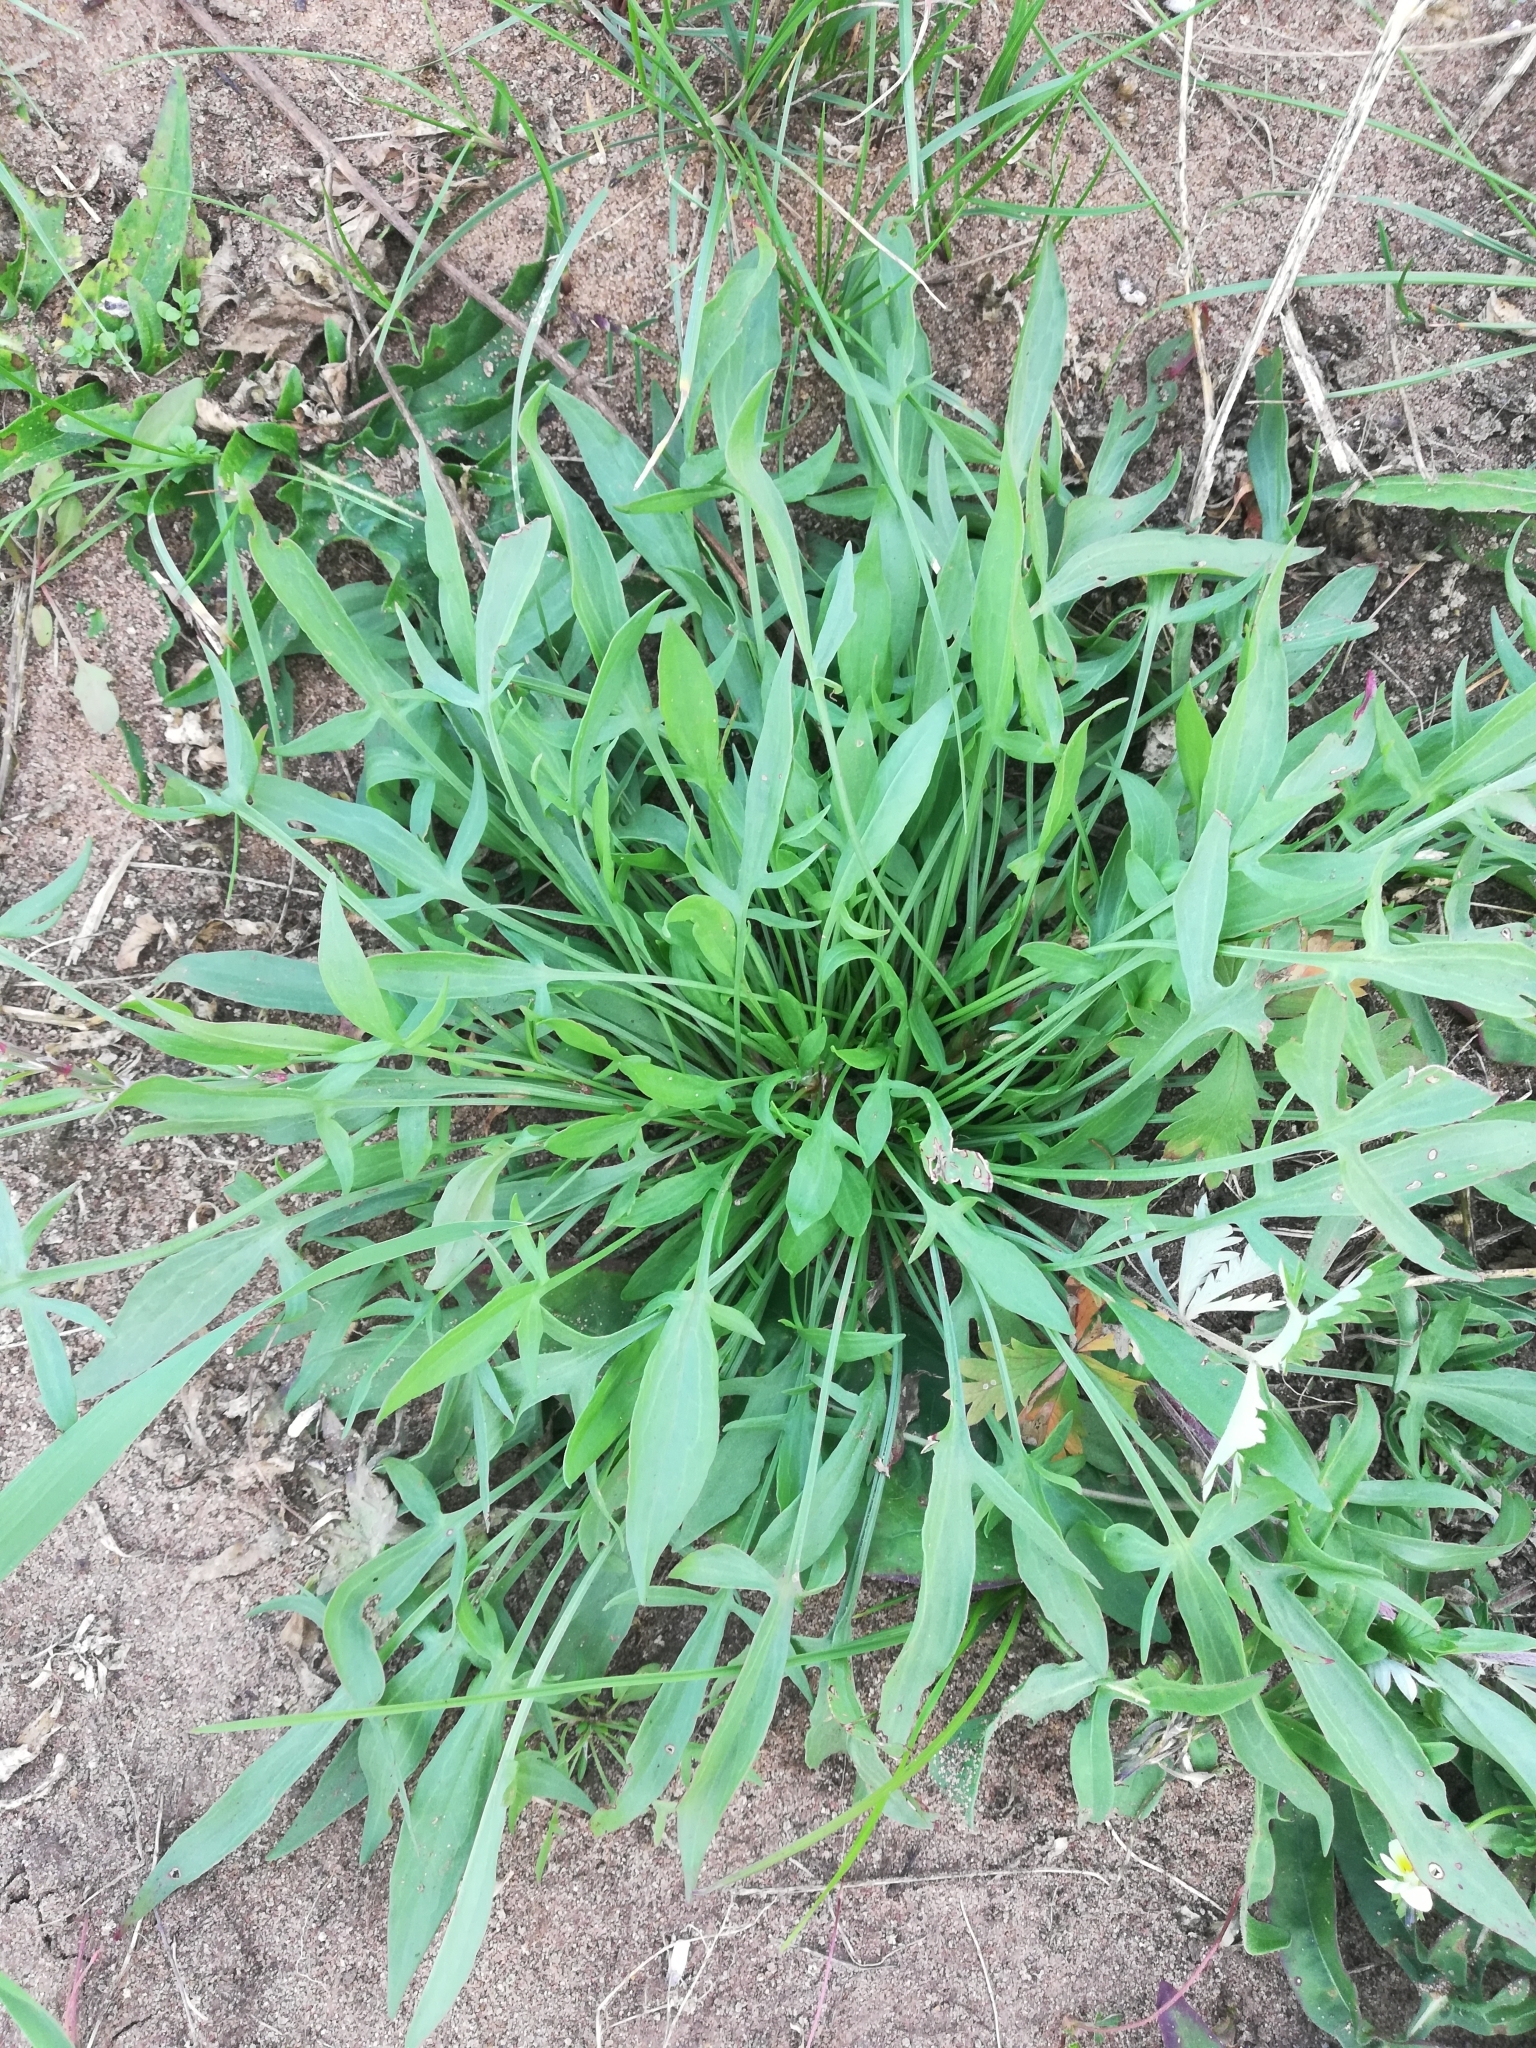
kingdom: Plantae
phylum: Tracheophyta
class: Magnoliopsida
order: Caryophyllales
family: Polygonaceae
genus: Rumex
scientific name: Rumex acetosella
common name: Common sheep sorrel
